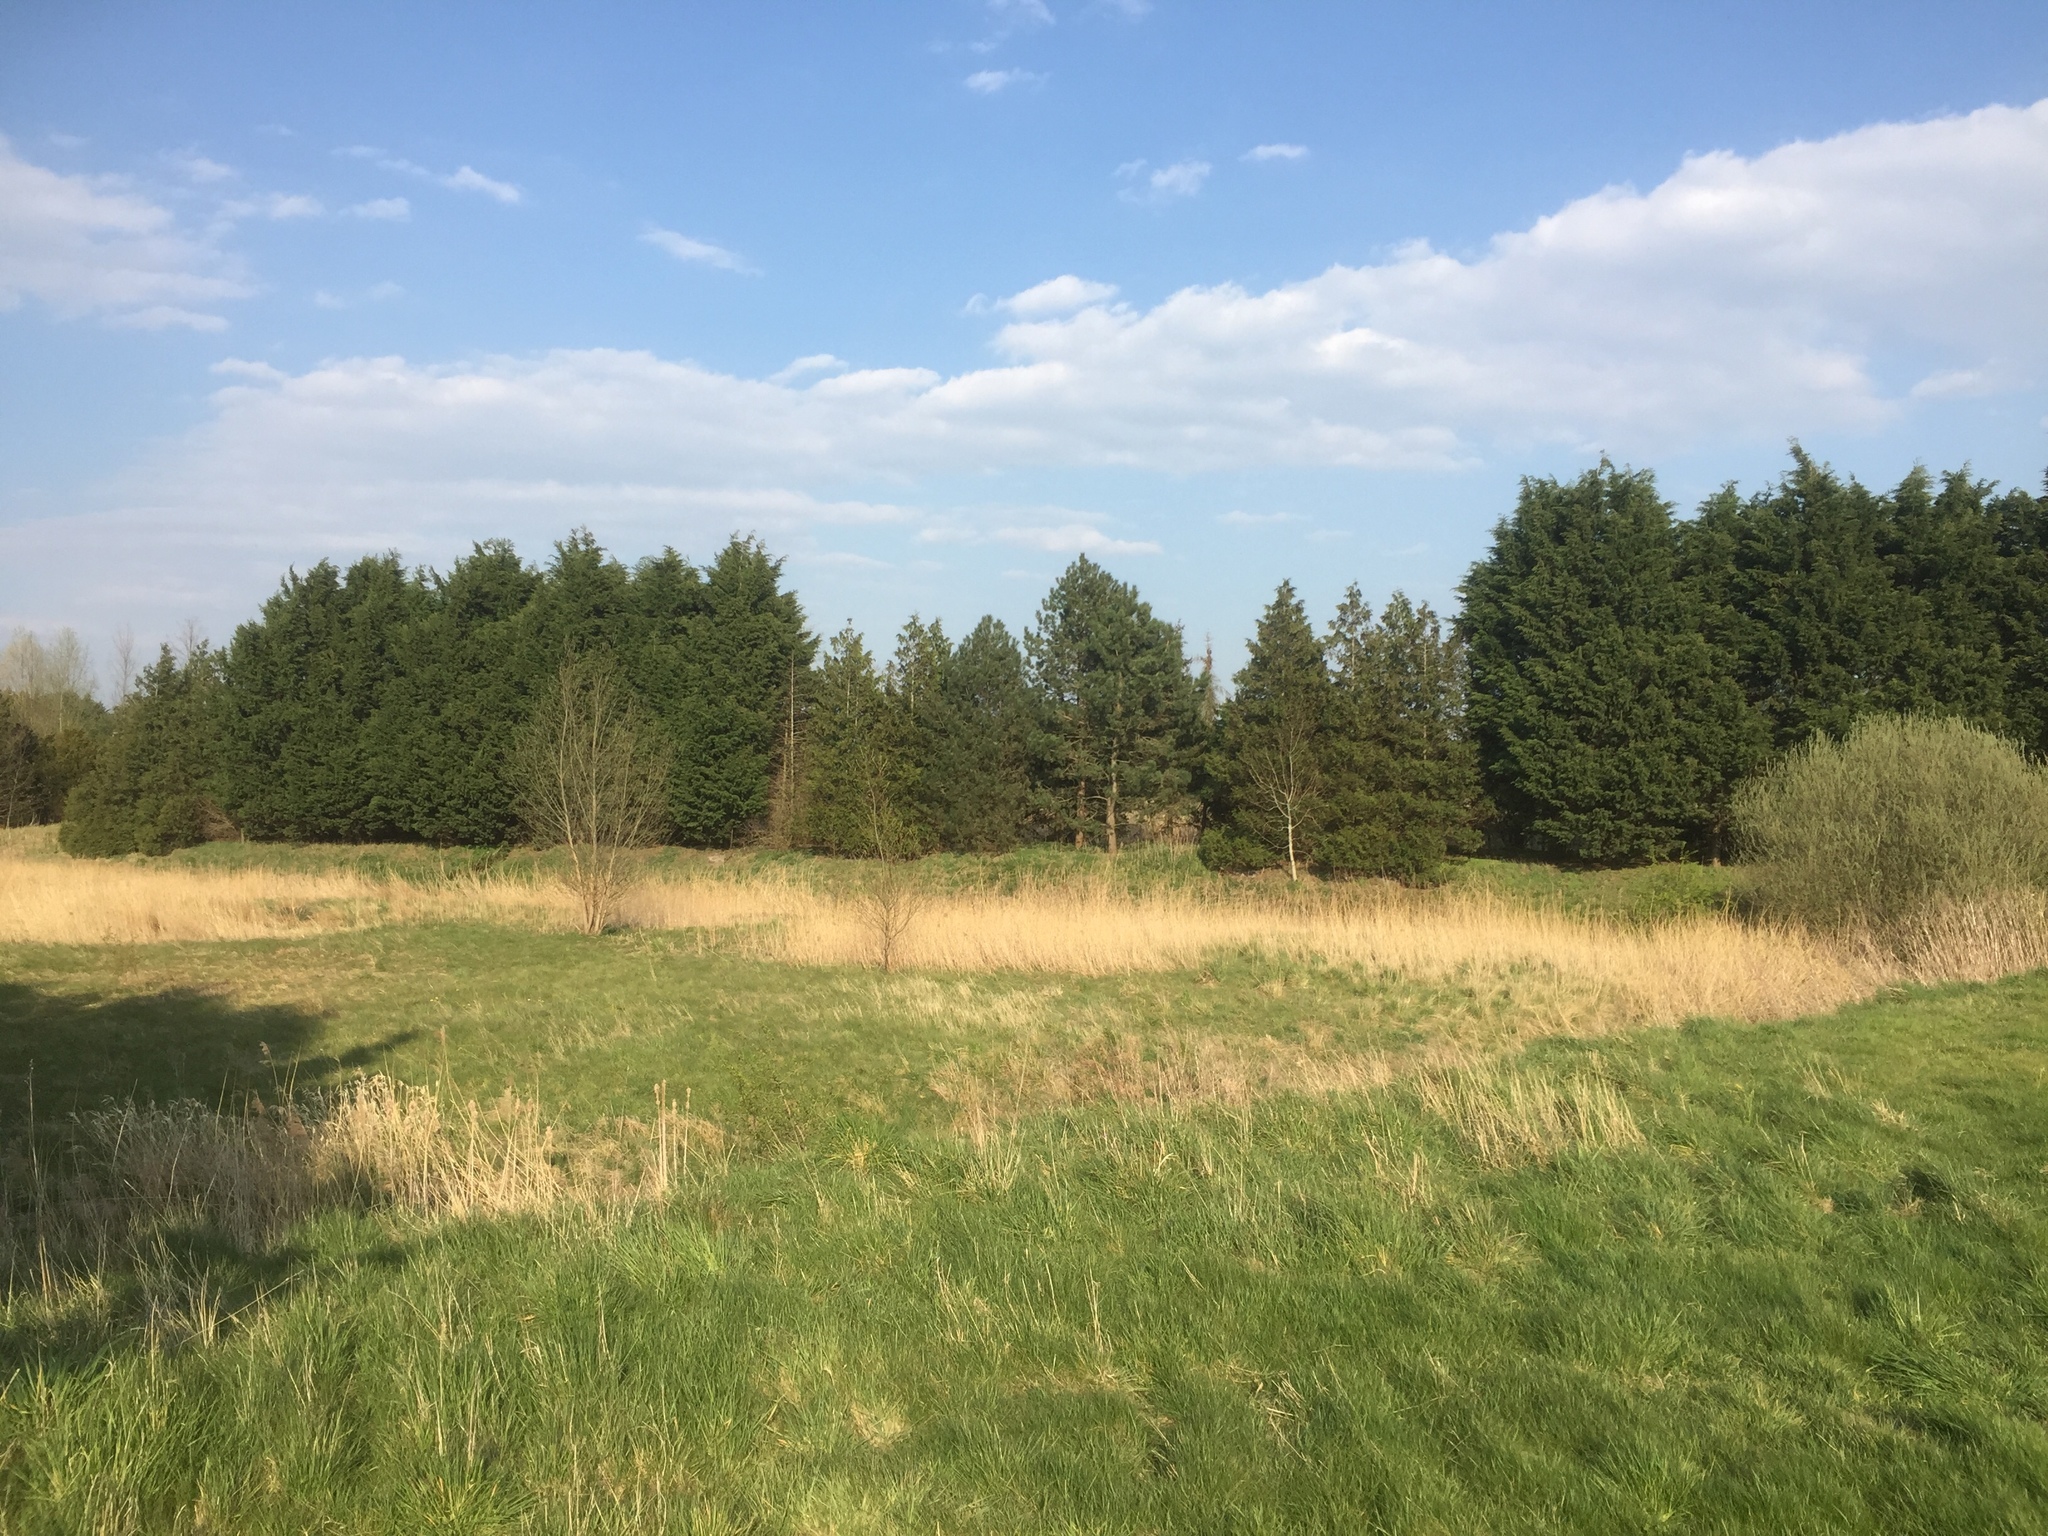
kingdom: Plantae
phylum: Tracheophyta
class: Liliopsida
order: Poales
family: Poaceae
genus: Phragmites
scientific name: Phragmites australis
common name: Common reed
